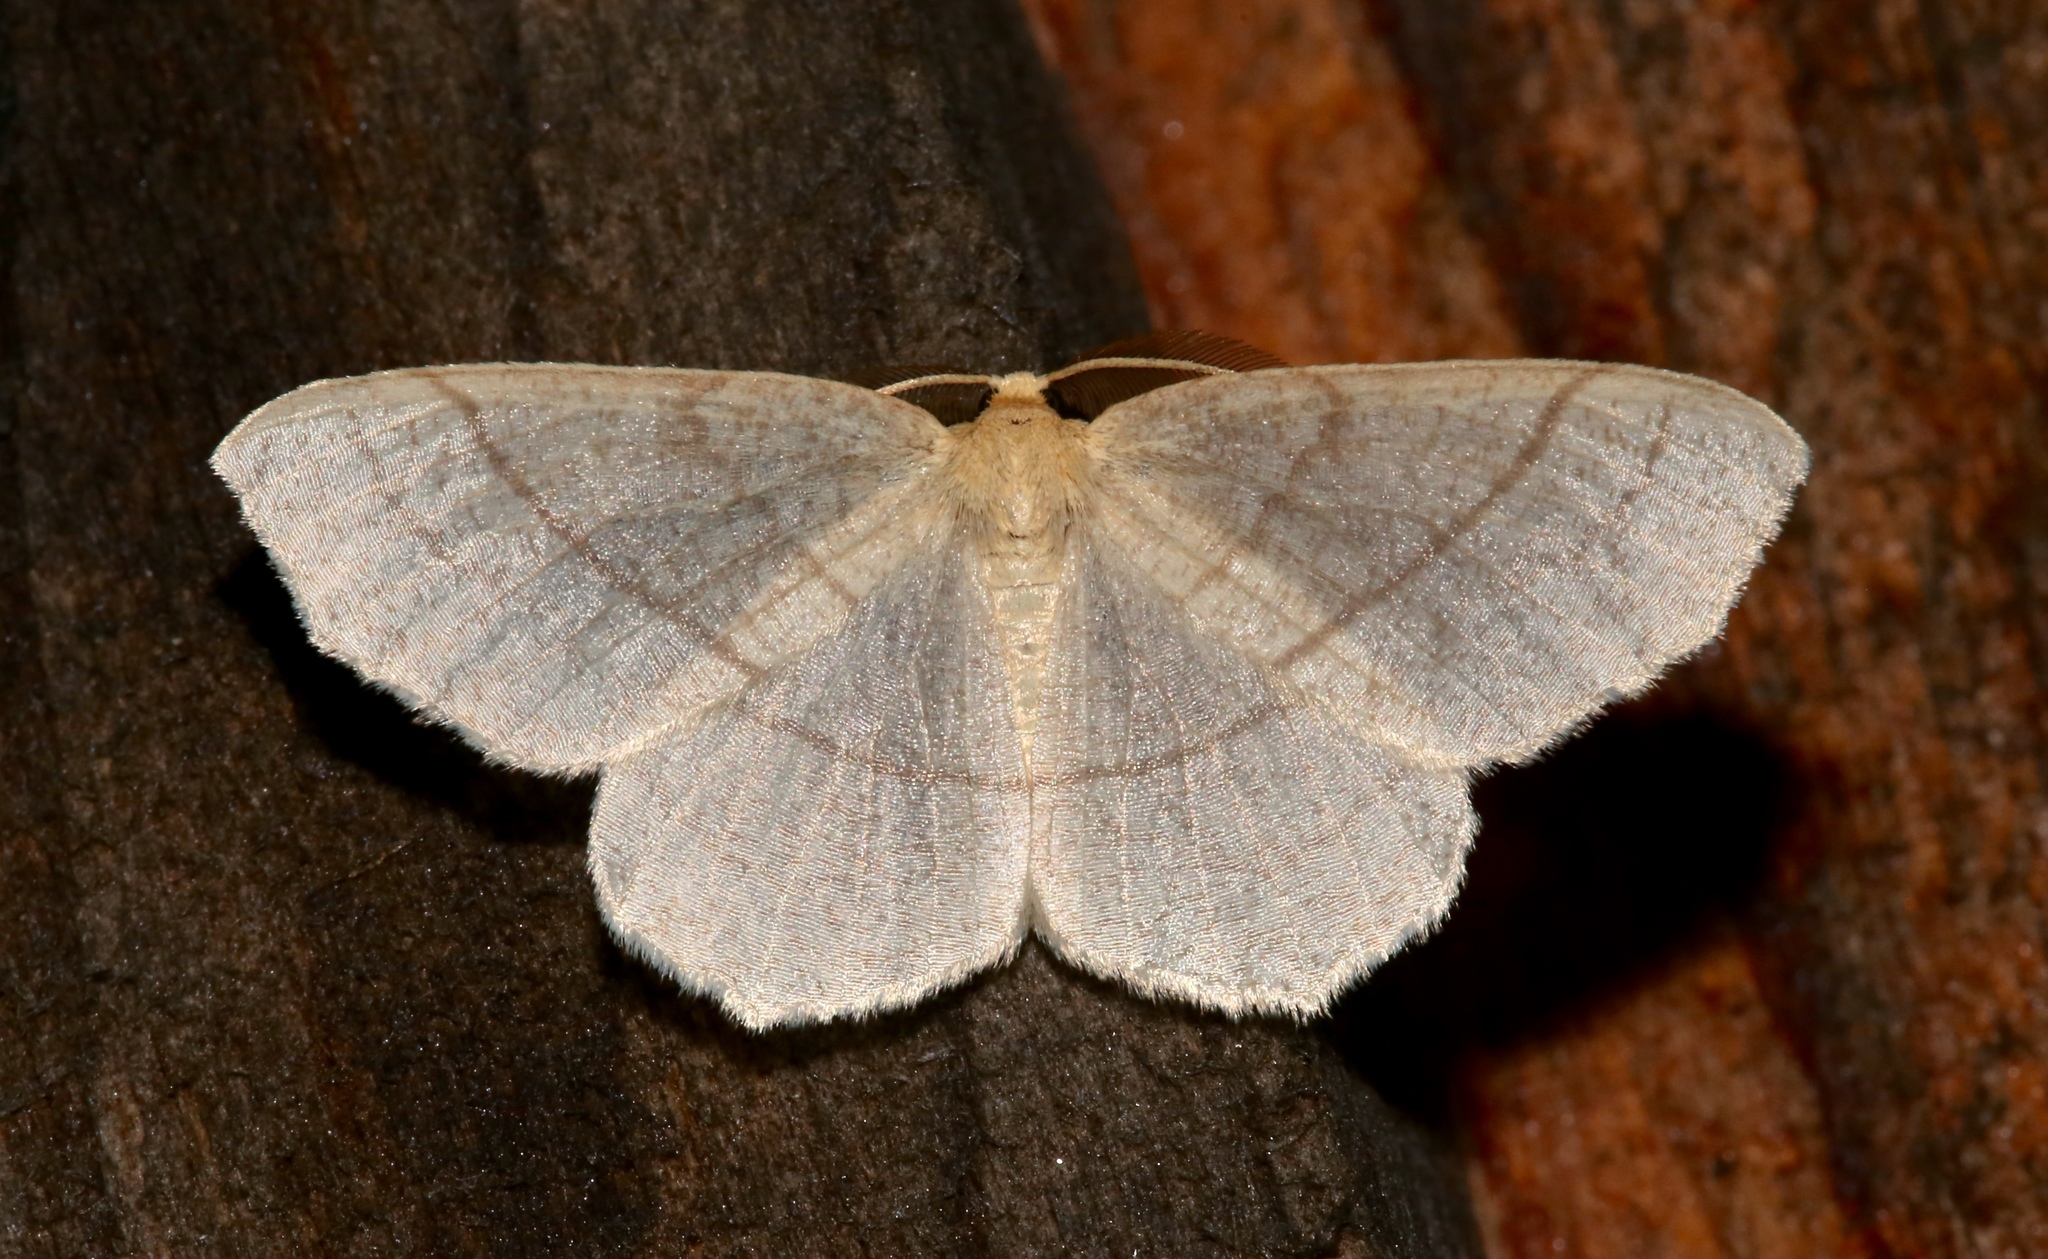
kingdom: Animalia
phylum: Arthropoda
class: Insecta
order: Lepidoptera
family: Geometridae
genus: Besma
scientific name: Besma endropiaria
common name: Straw besma
